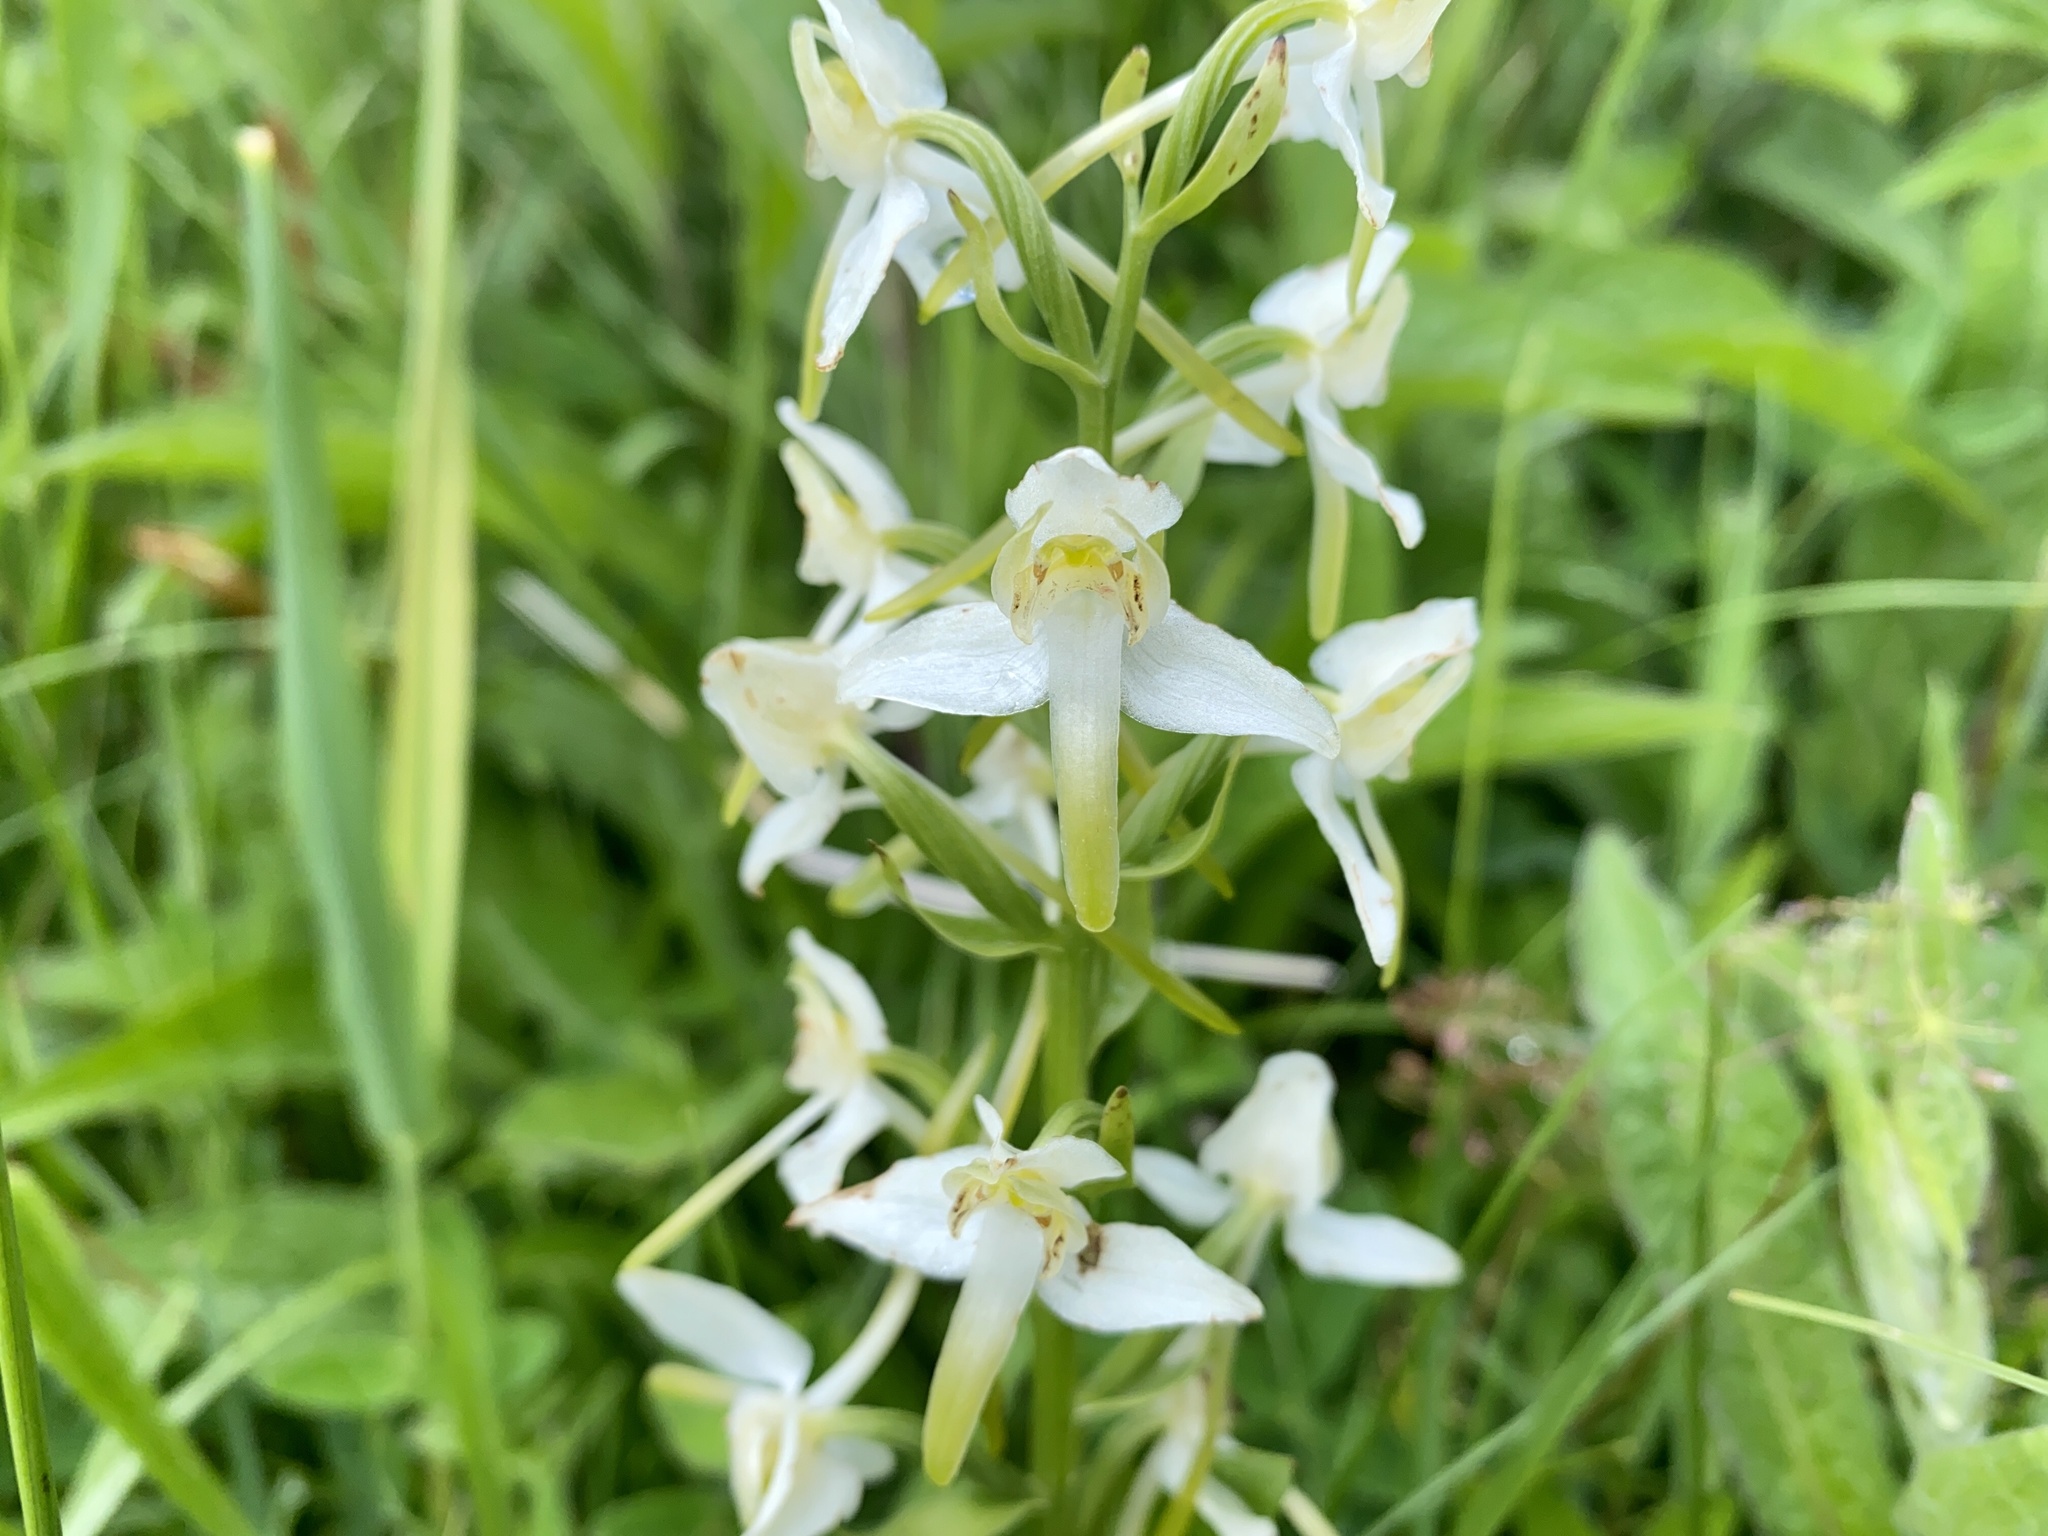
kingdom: Plantae
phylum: Tracheophyta
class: Liliopsida
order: Asparagales
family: Orchidaceae
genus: Platanthera
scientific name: Platanthera chlorantha
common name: Greater butterfly-orchid
